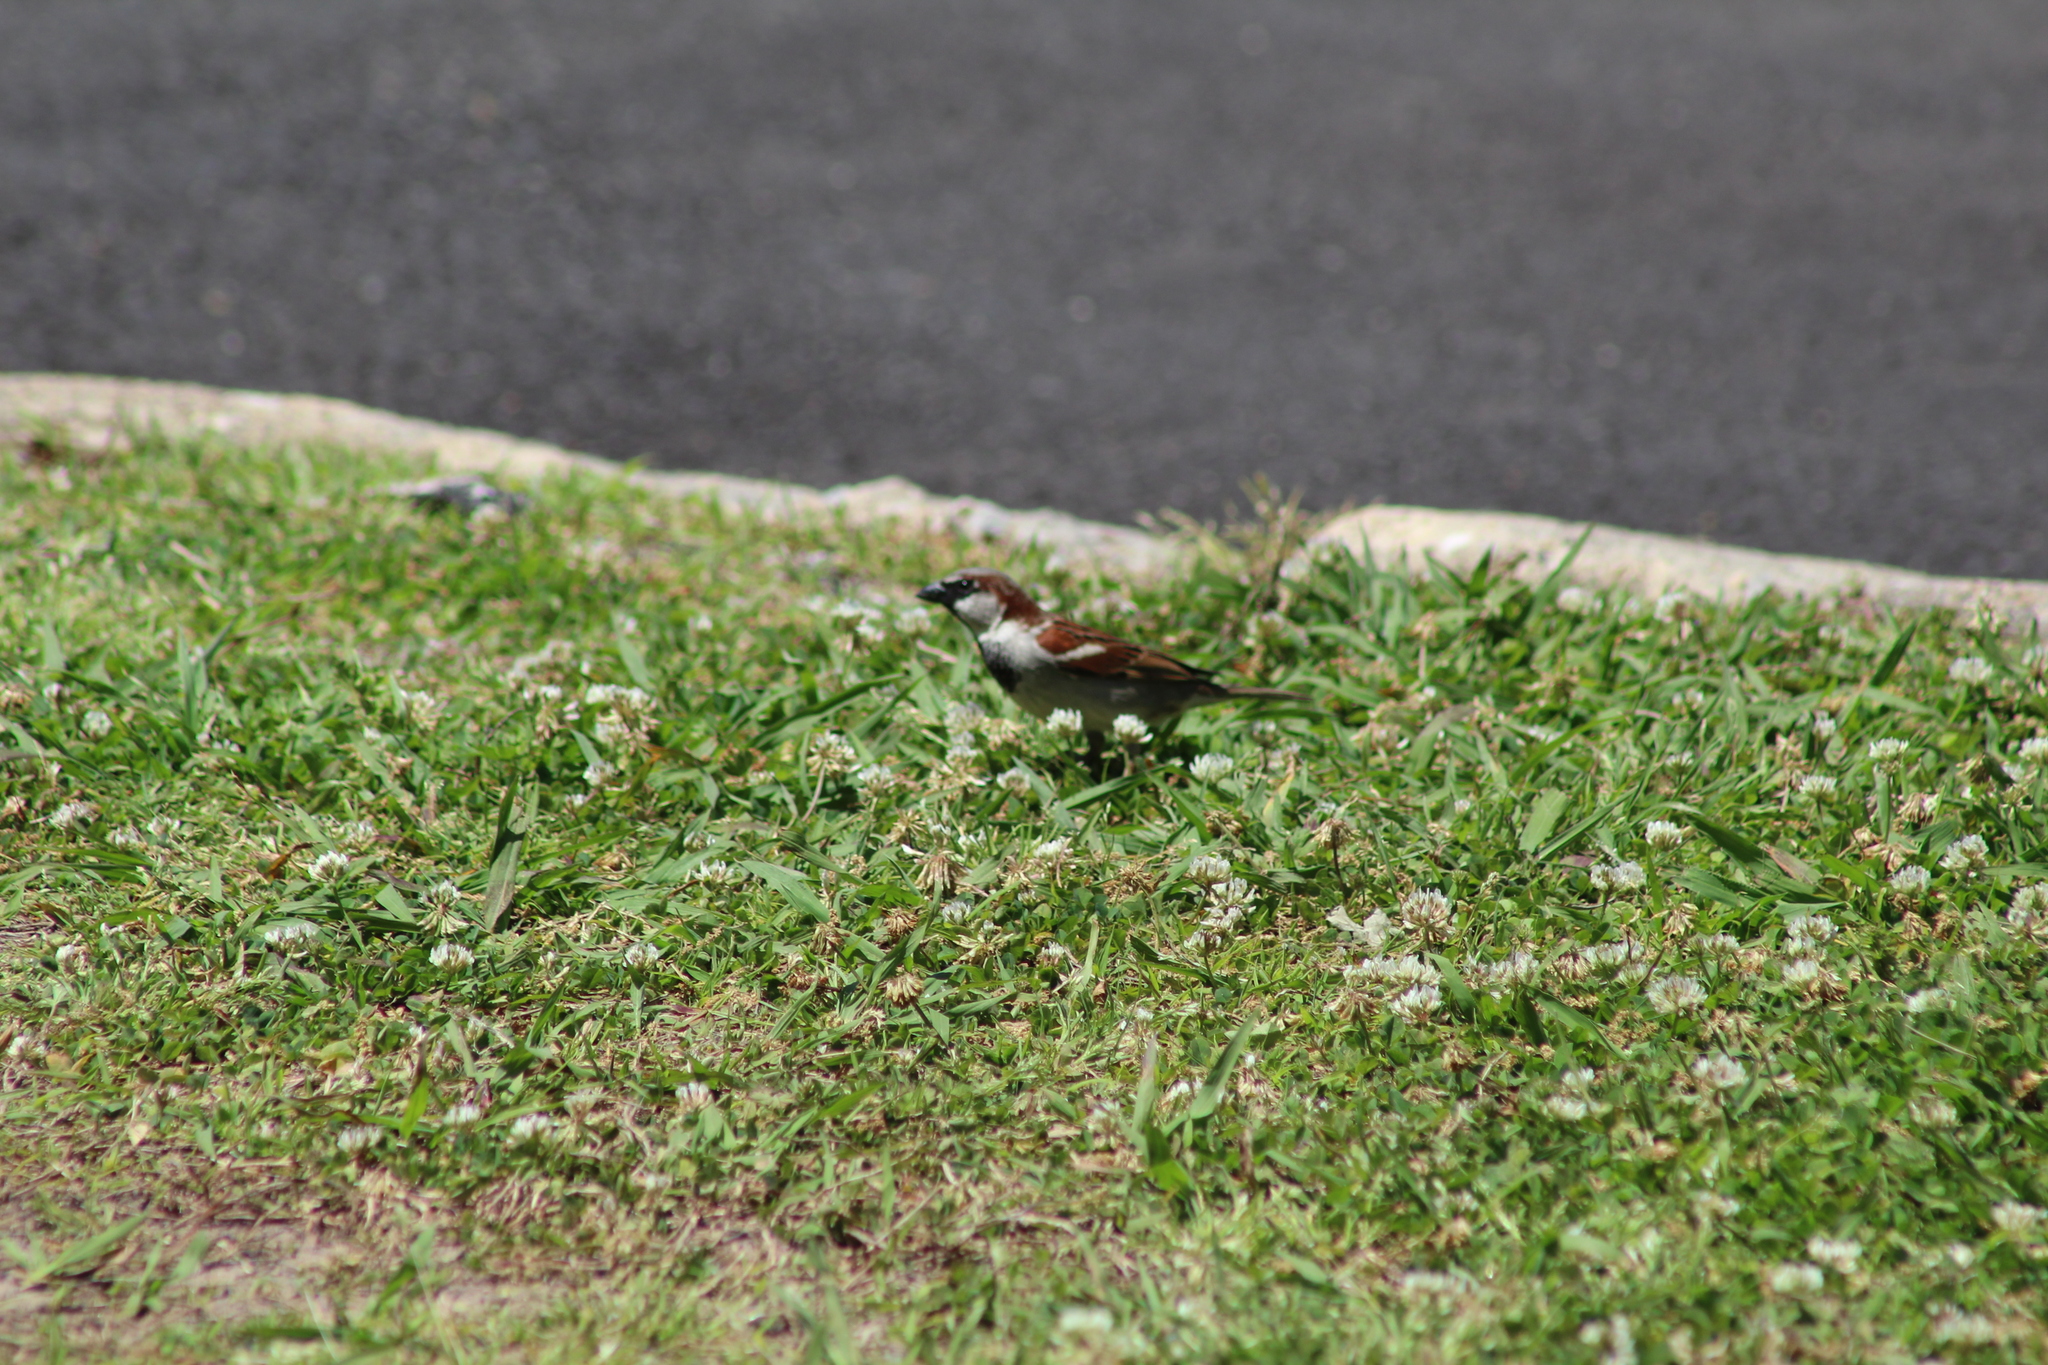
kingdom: Animalia
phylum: Chordata
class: Aves
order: Passeriformes
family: Passeridae
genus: Passer
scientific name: Passer domesticus
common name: House sparrow
